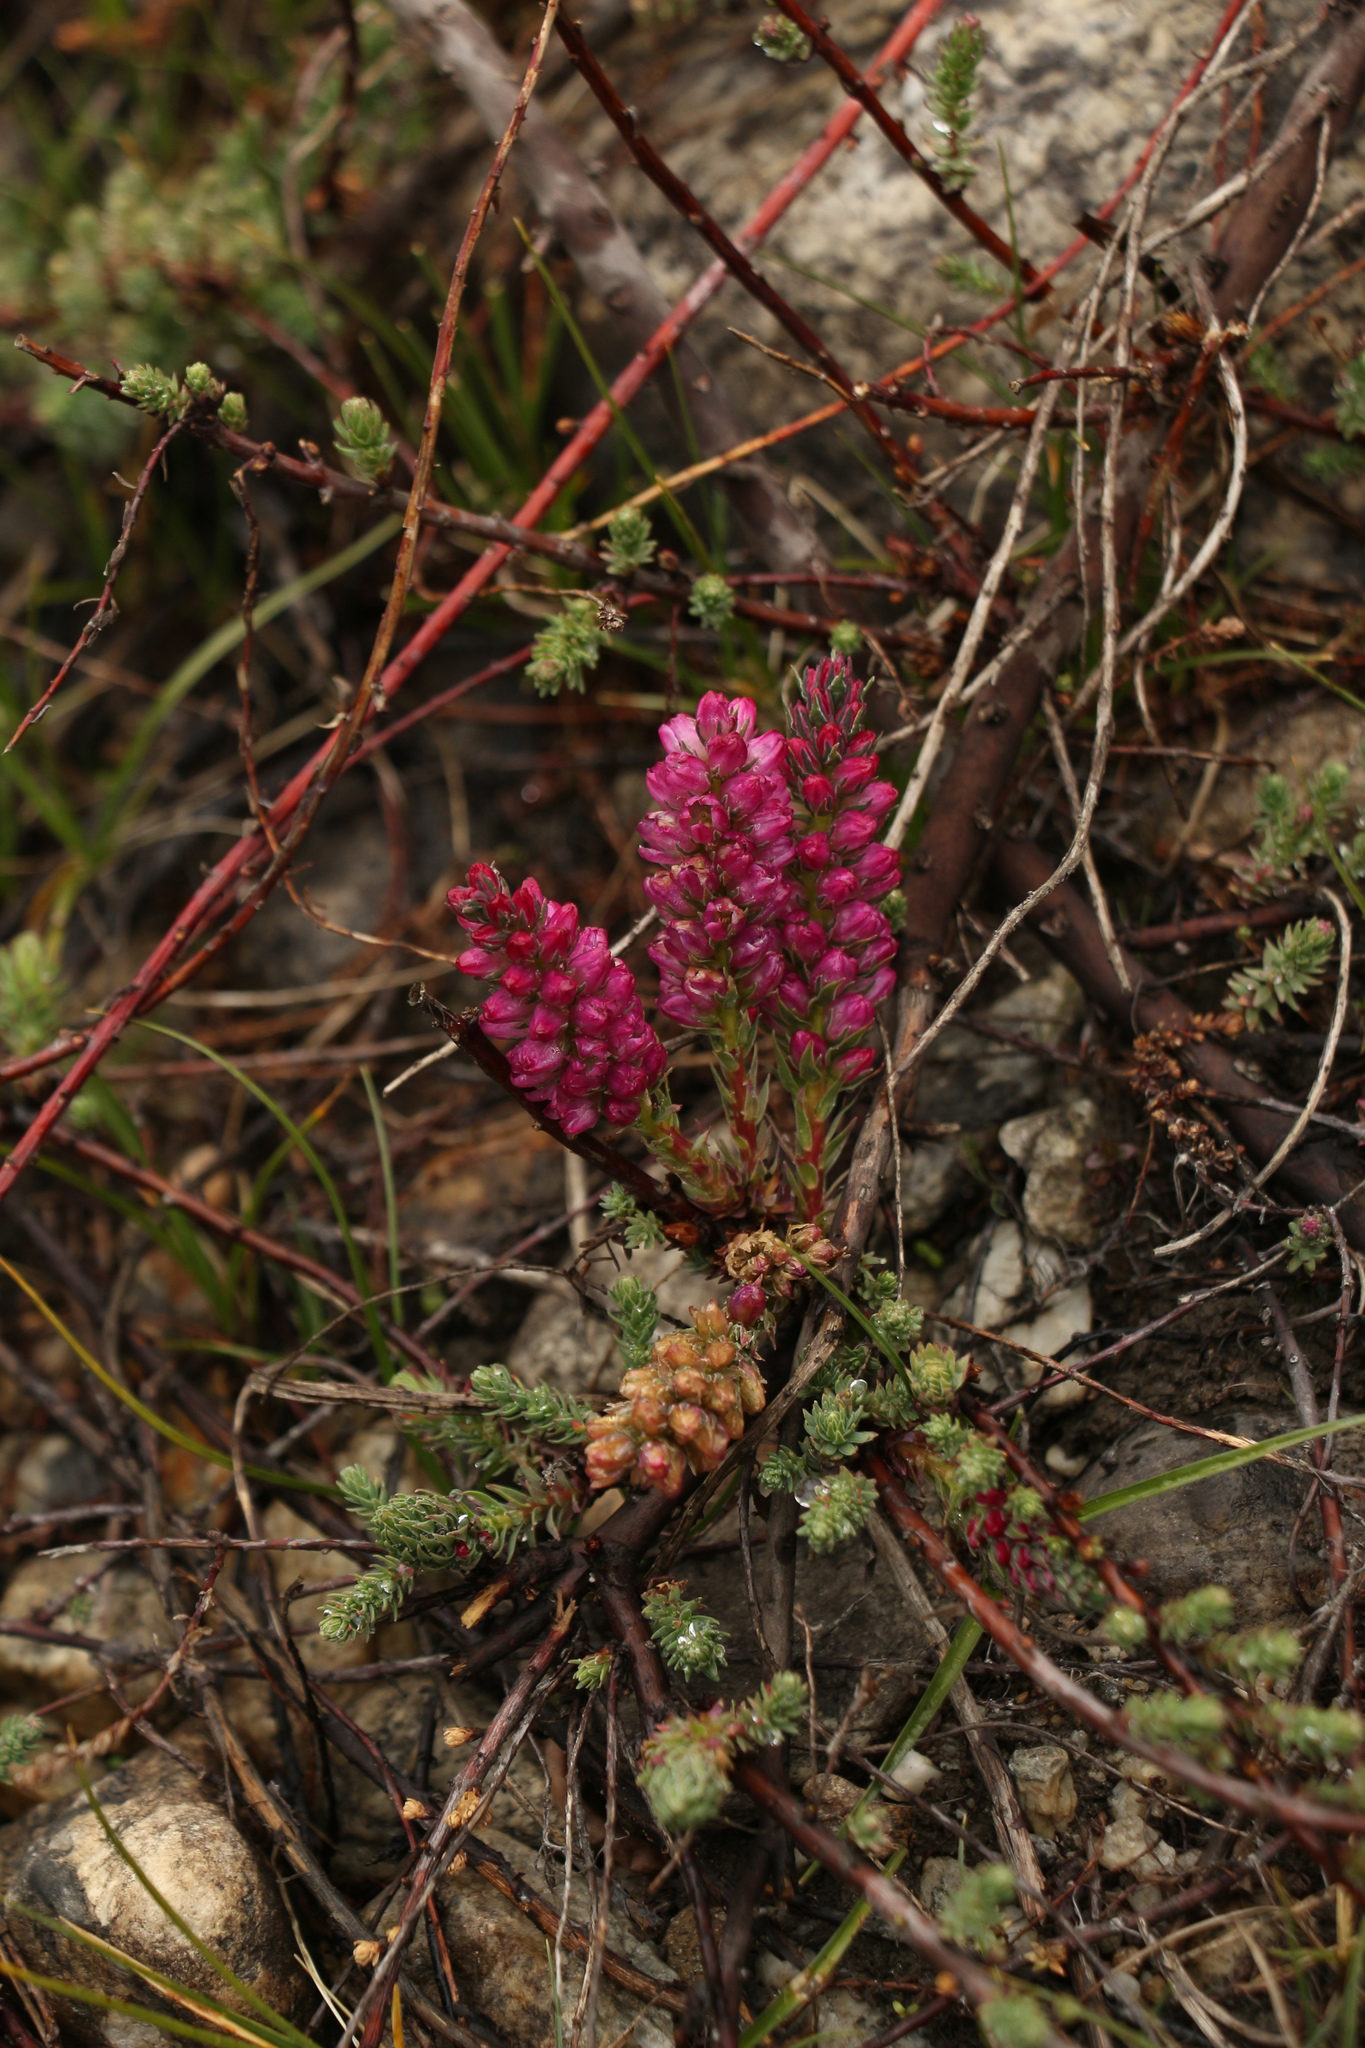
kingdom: Plantae
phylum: Tracheophyta
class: Magnoliopsida
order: Caryophyllales
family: Tamaricaceae
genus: Myricaria
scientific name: Myricaria rosea
